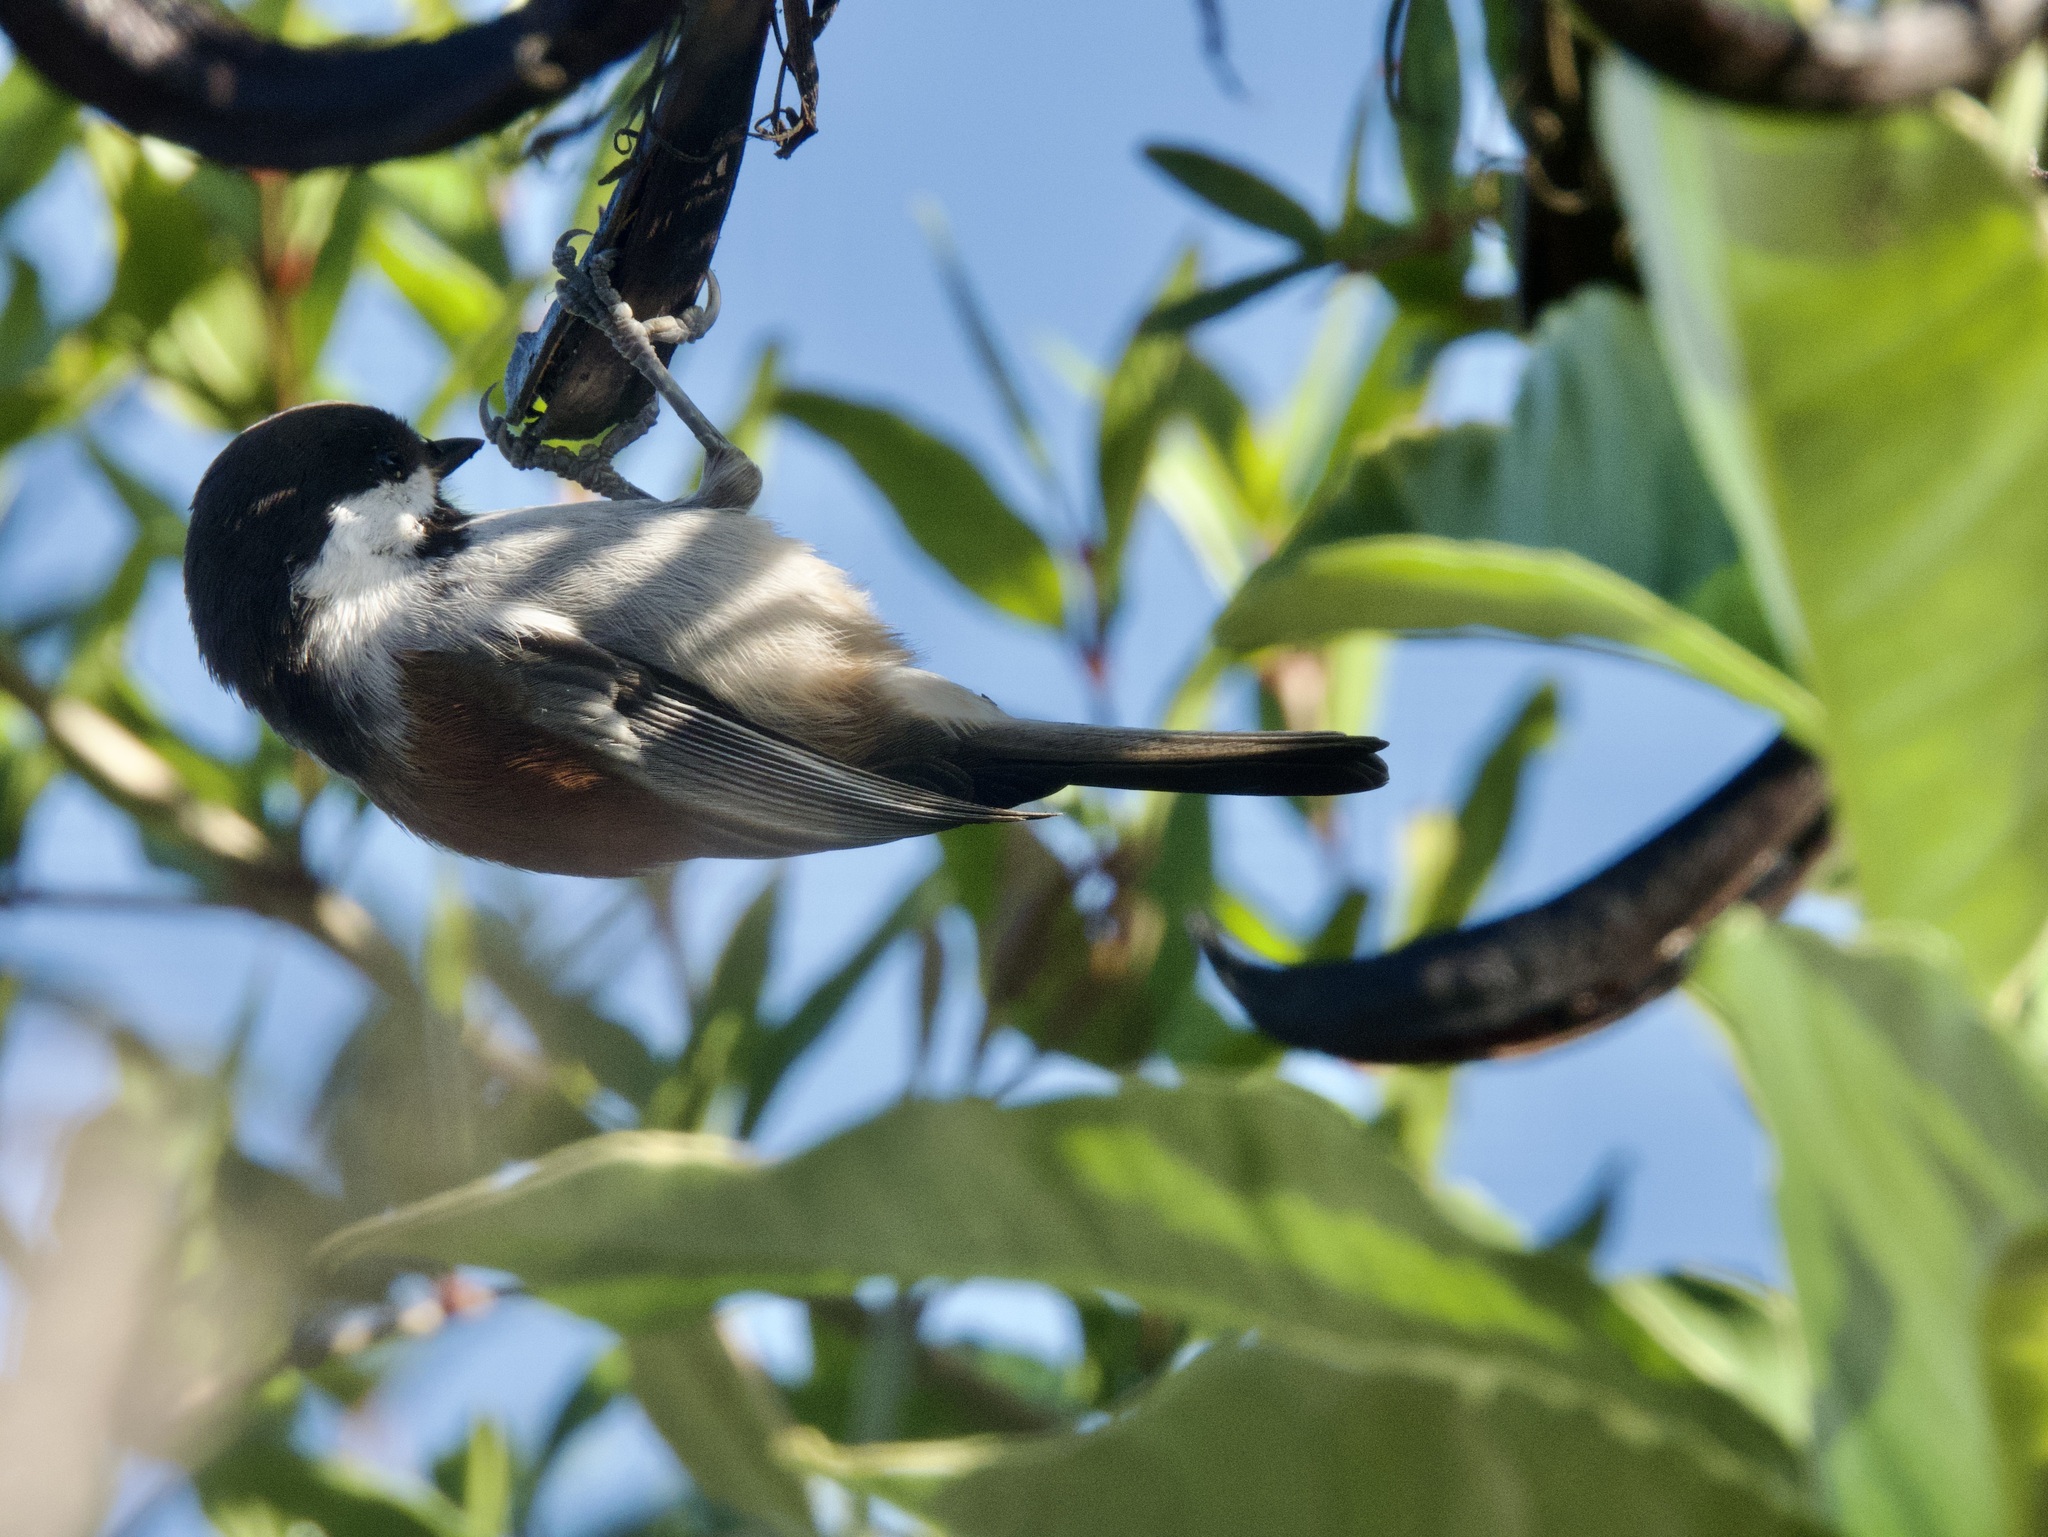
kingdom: Animalia
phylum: Chordata
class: Aves
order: Passeriformes
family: Paridae
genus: Poecile
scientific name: Poecile rufescens
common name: Chestnut-backed chickadee
